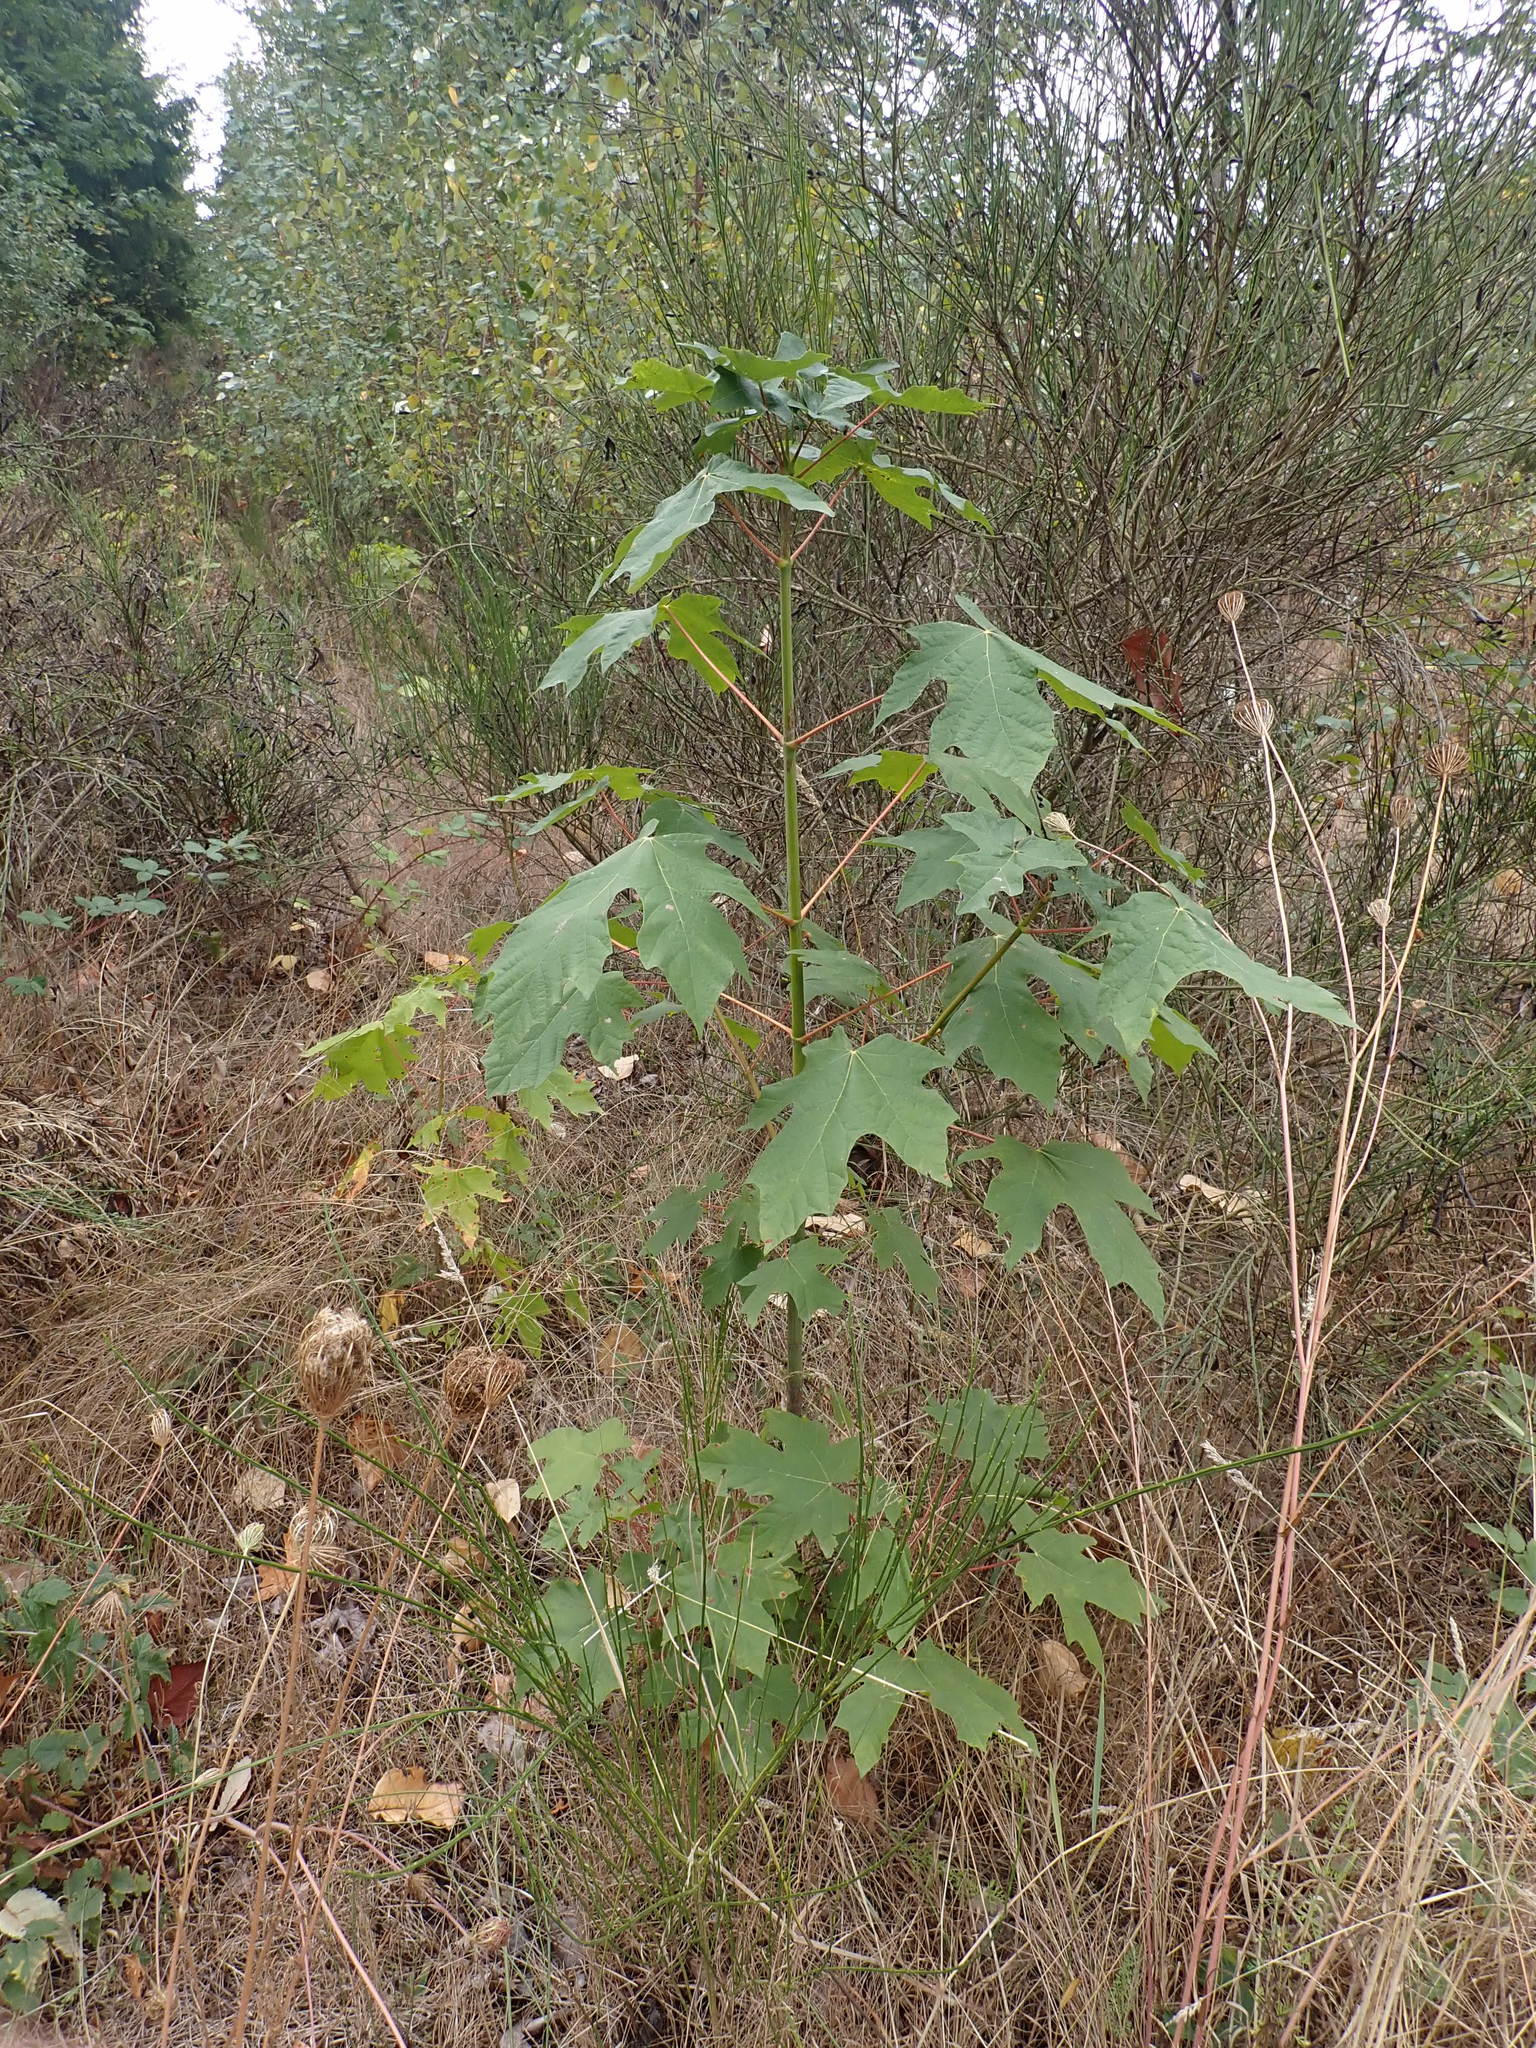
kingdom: Plantae
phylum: Tracheophyta
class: Magnoliopsida
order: Sapindales
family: Sapindaceae
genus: Acer
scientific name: Acer macrophyllum
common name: Oregon maple
